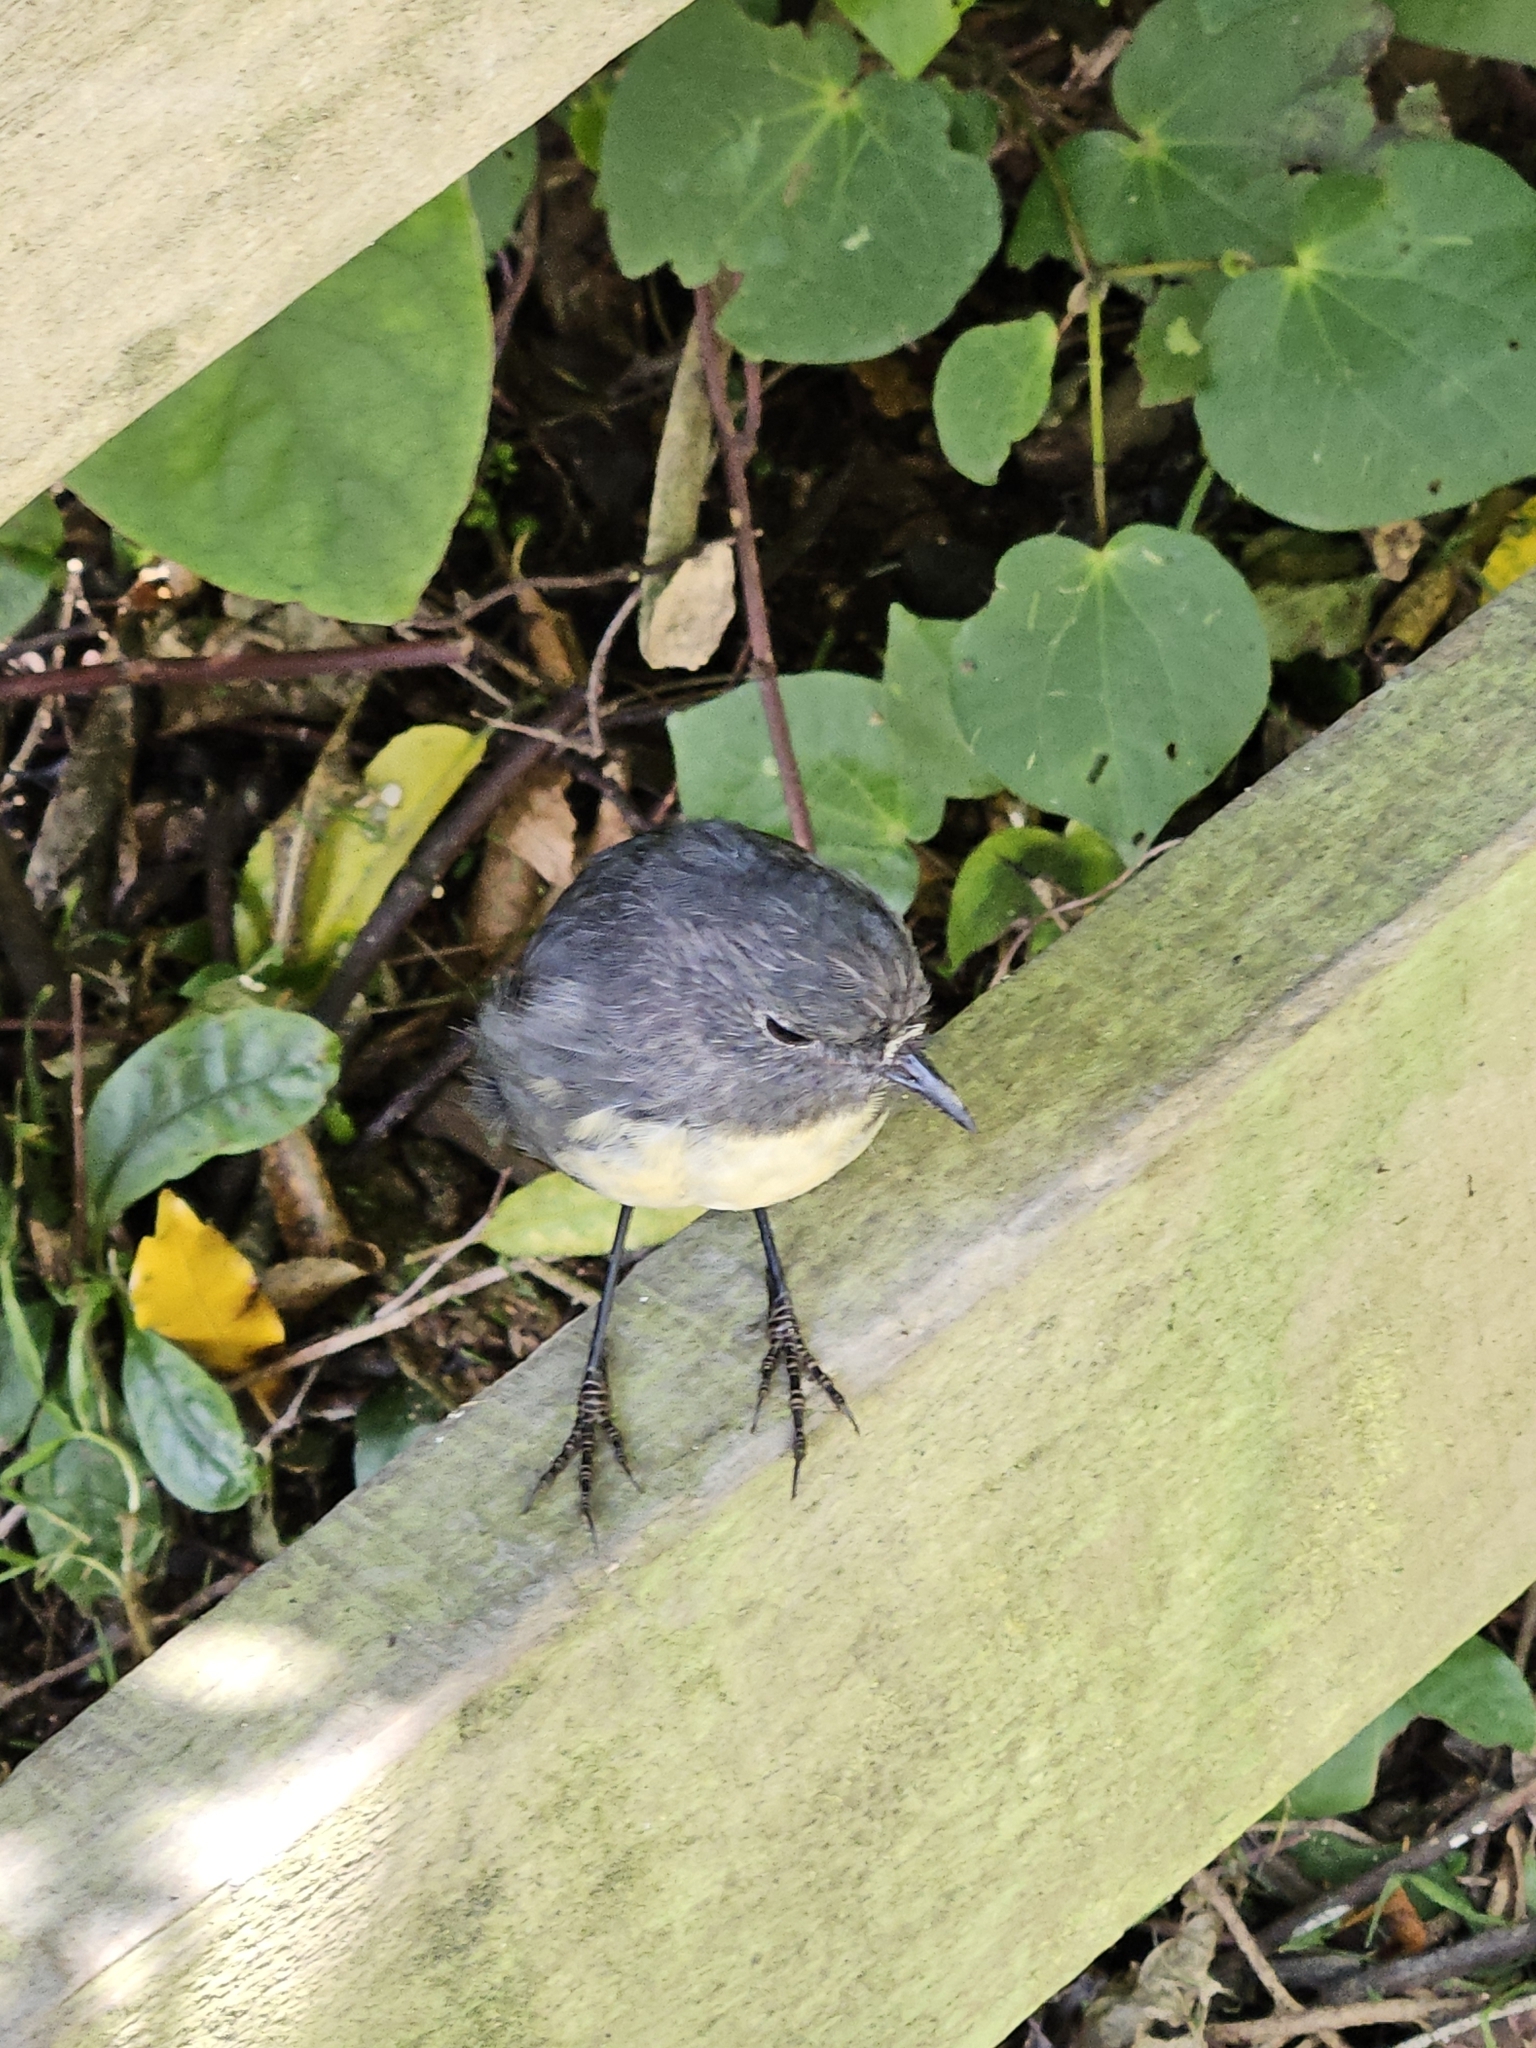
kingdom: Animalia
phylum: Chordata
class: Aves
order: Passeriformes
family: Petroicidae
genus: Petroica
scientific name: Petroica australis
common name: New zealand robin
